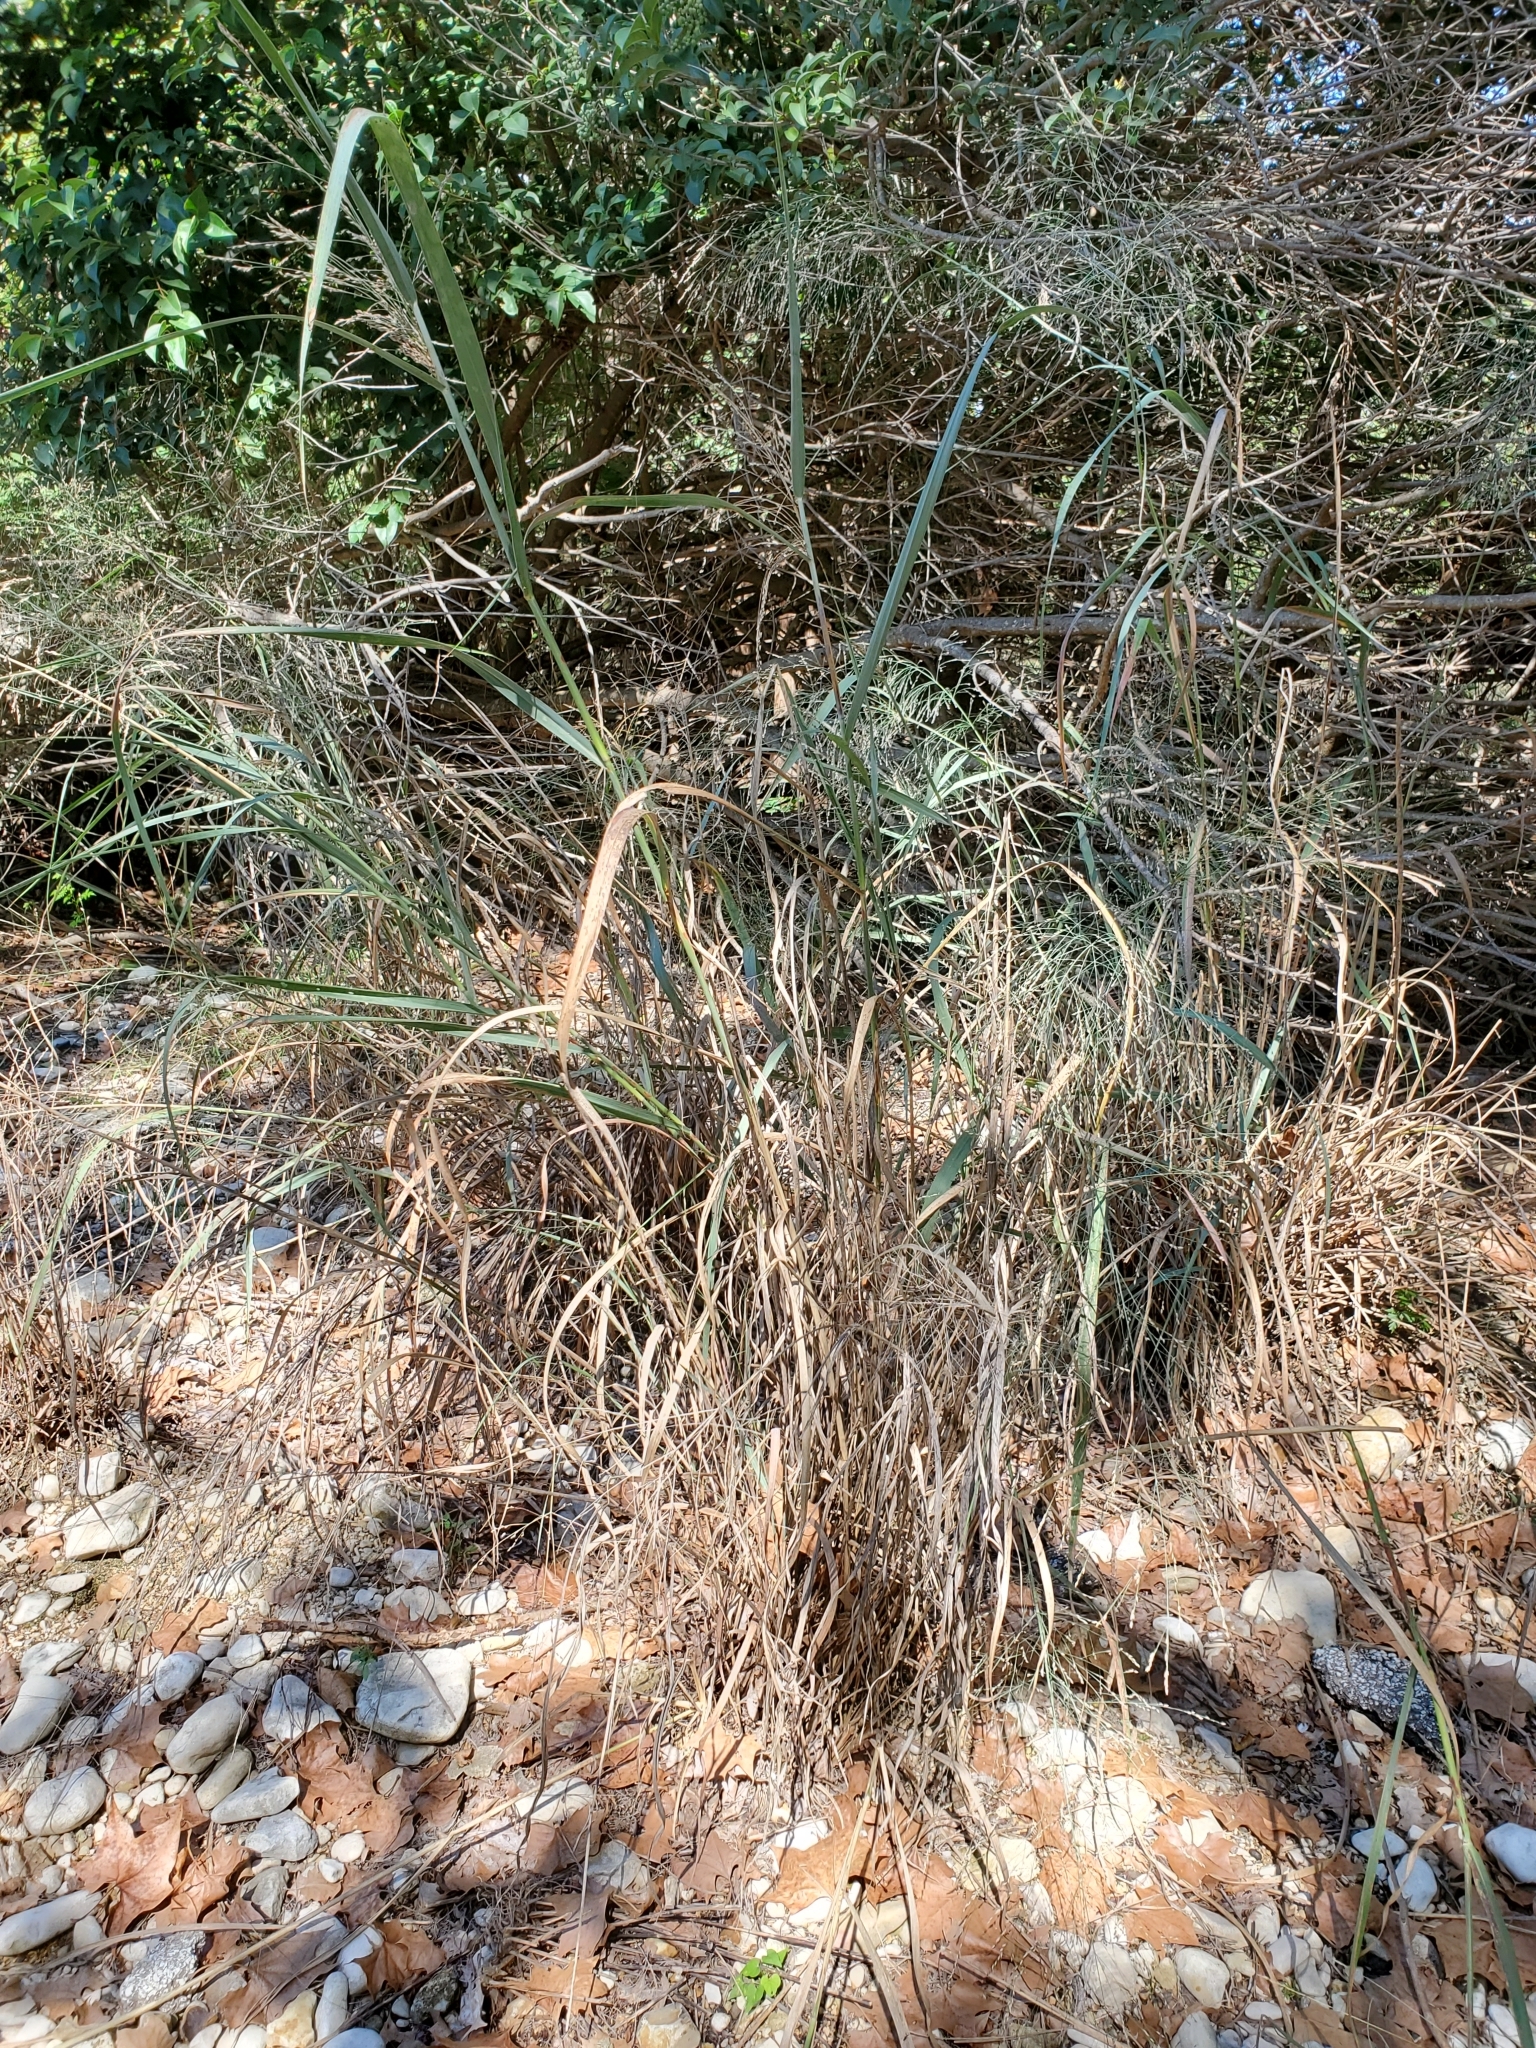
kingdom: Plantae
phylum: Tracheophyta
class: Liliopsida
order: Poales
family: Poaceae
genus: Panicum
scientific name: Panicum virgatum
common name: Switchgrass
